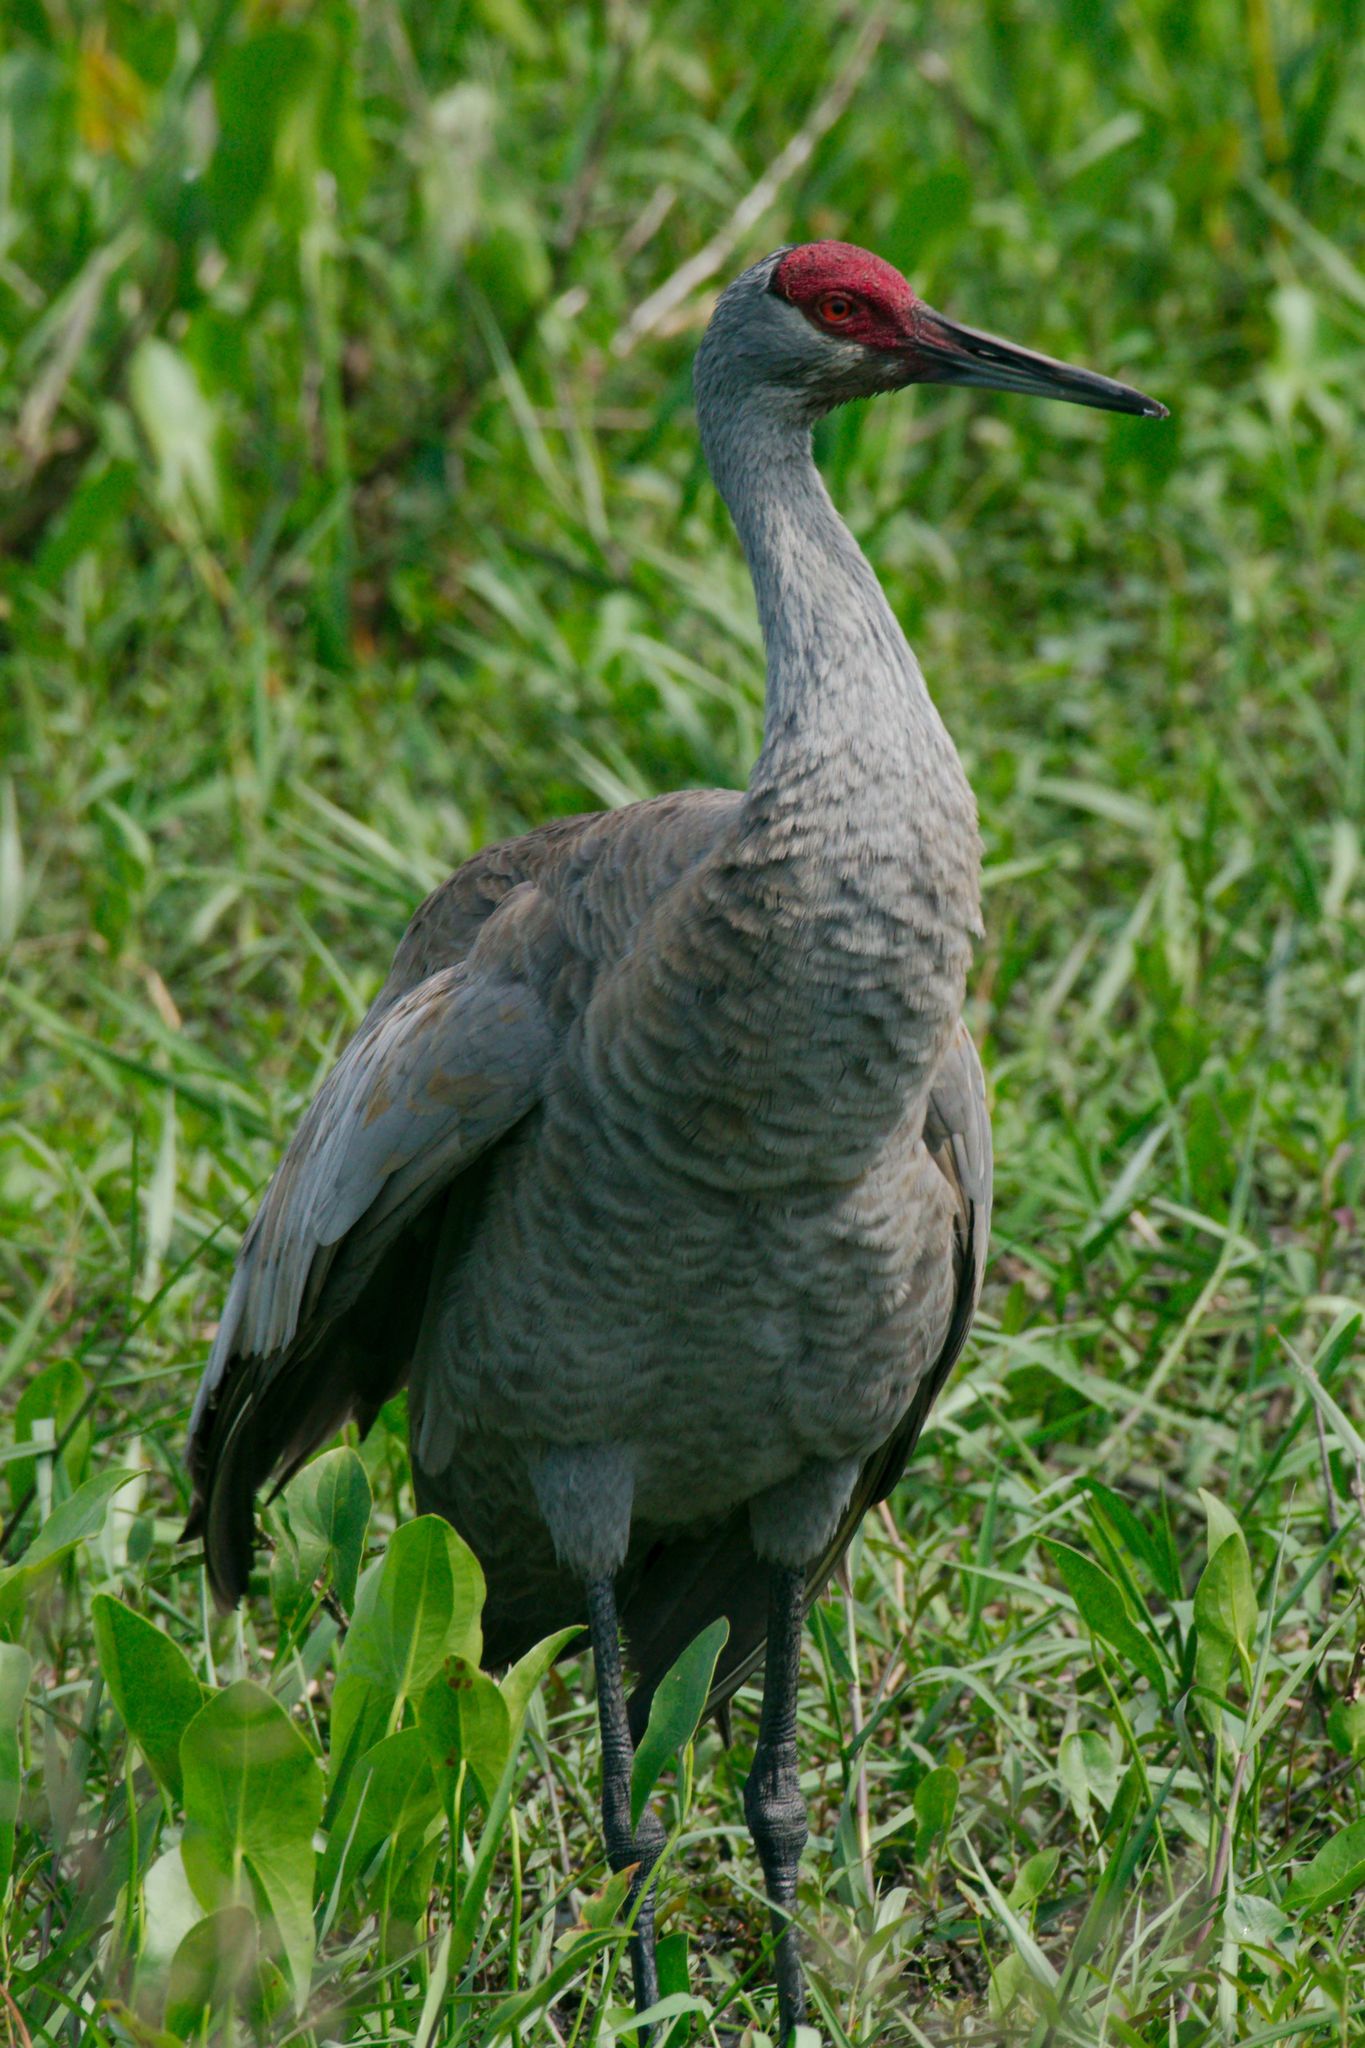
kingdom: Animalia
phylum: Chordata
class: Aves
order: Gruiformes
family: Gruidae
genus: Grus
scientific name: Grus canadensis
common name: Sandhill crane
